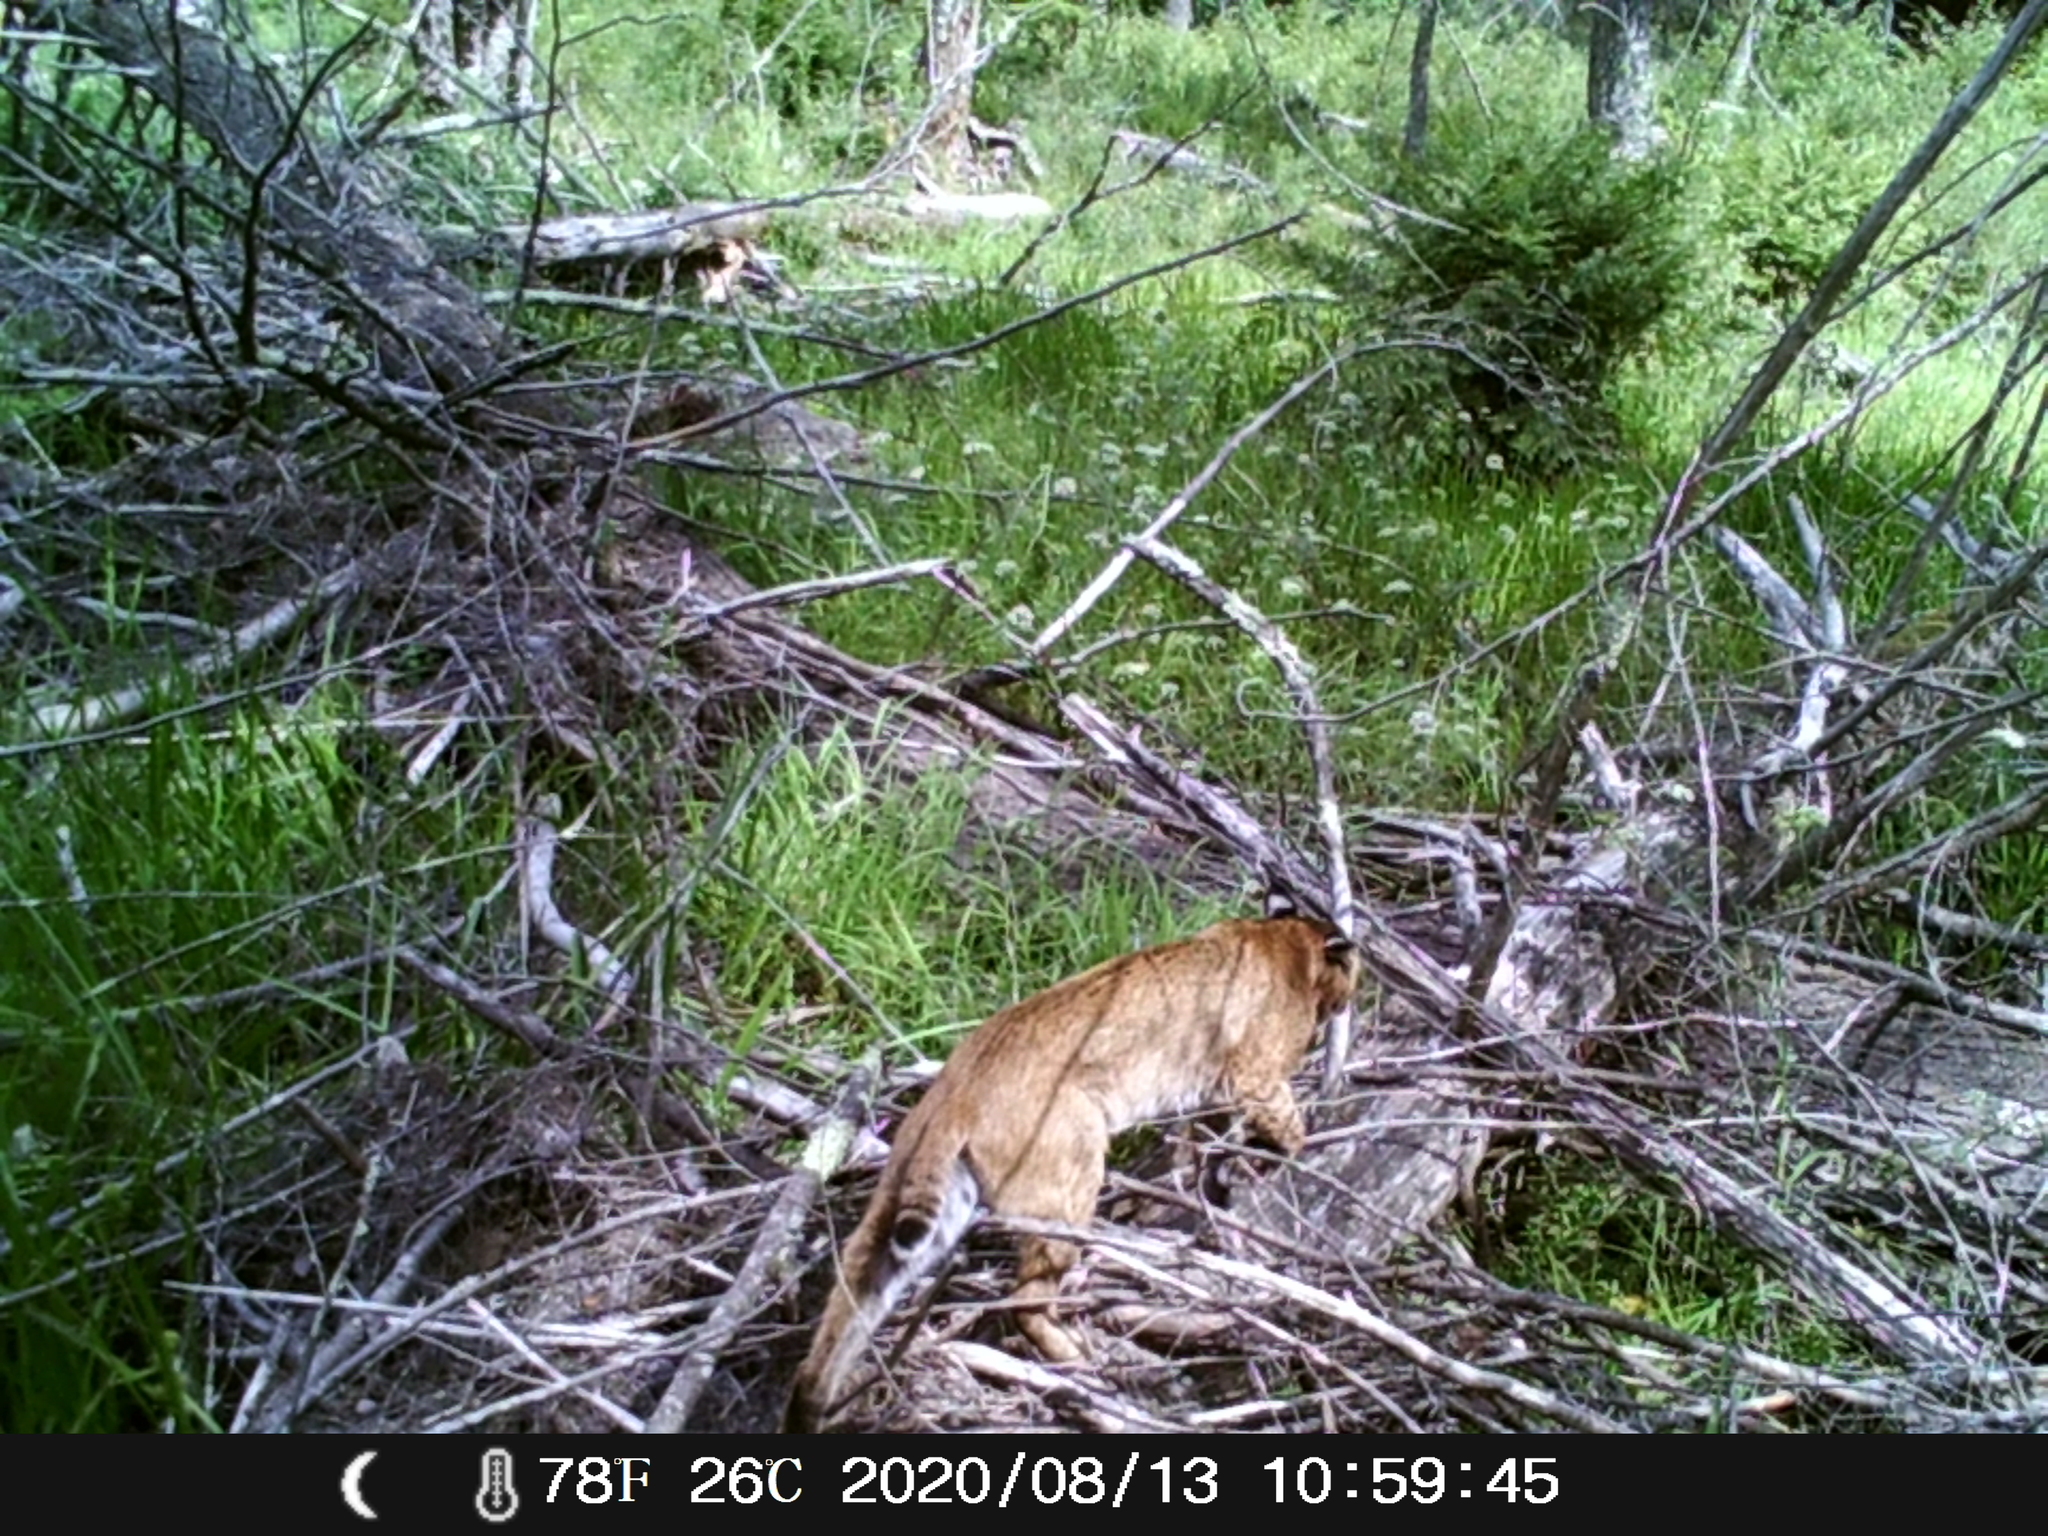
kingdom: Animalia
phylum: Chordata
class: Mammalia
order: Carnivora
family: Felidae
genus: Lynx
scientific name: Lynx rufus
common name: Bobcat
